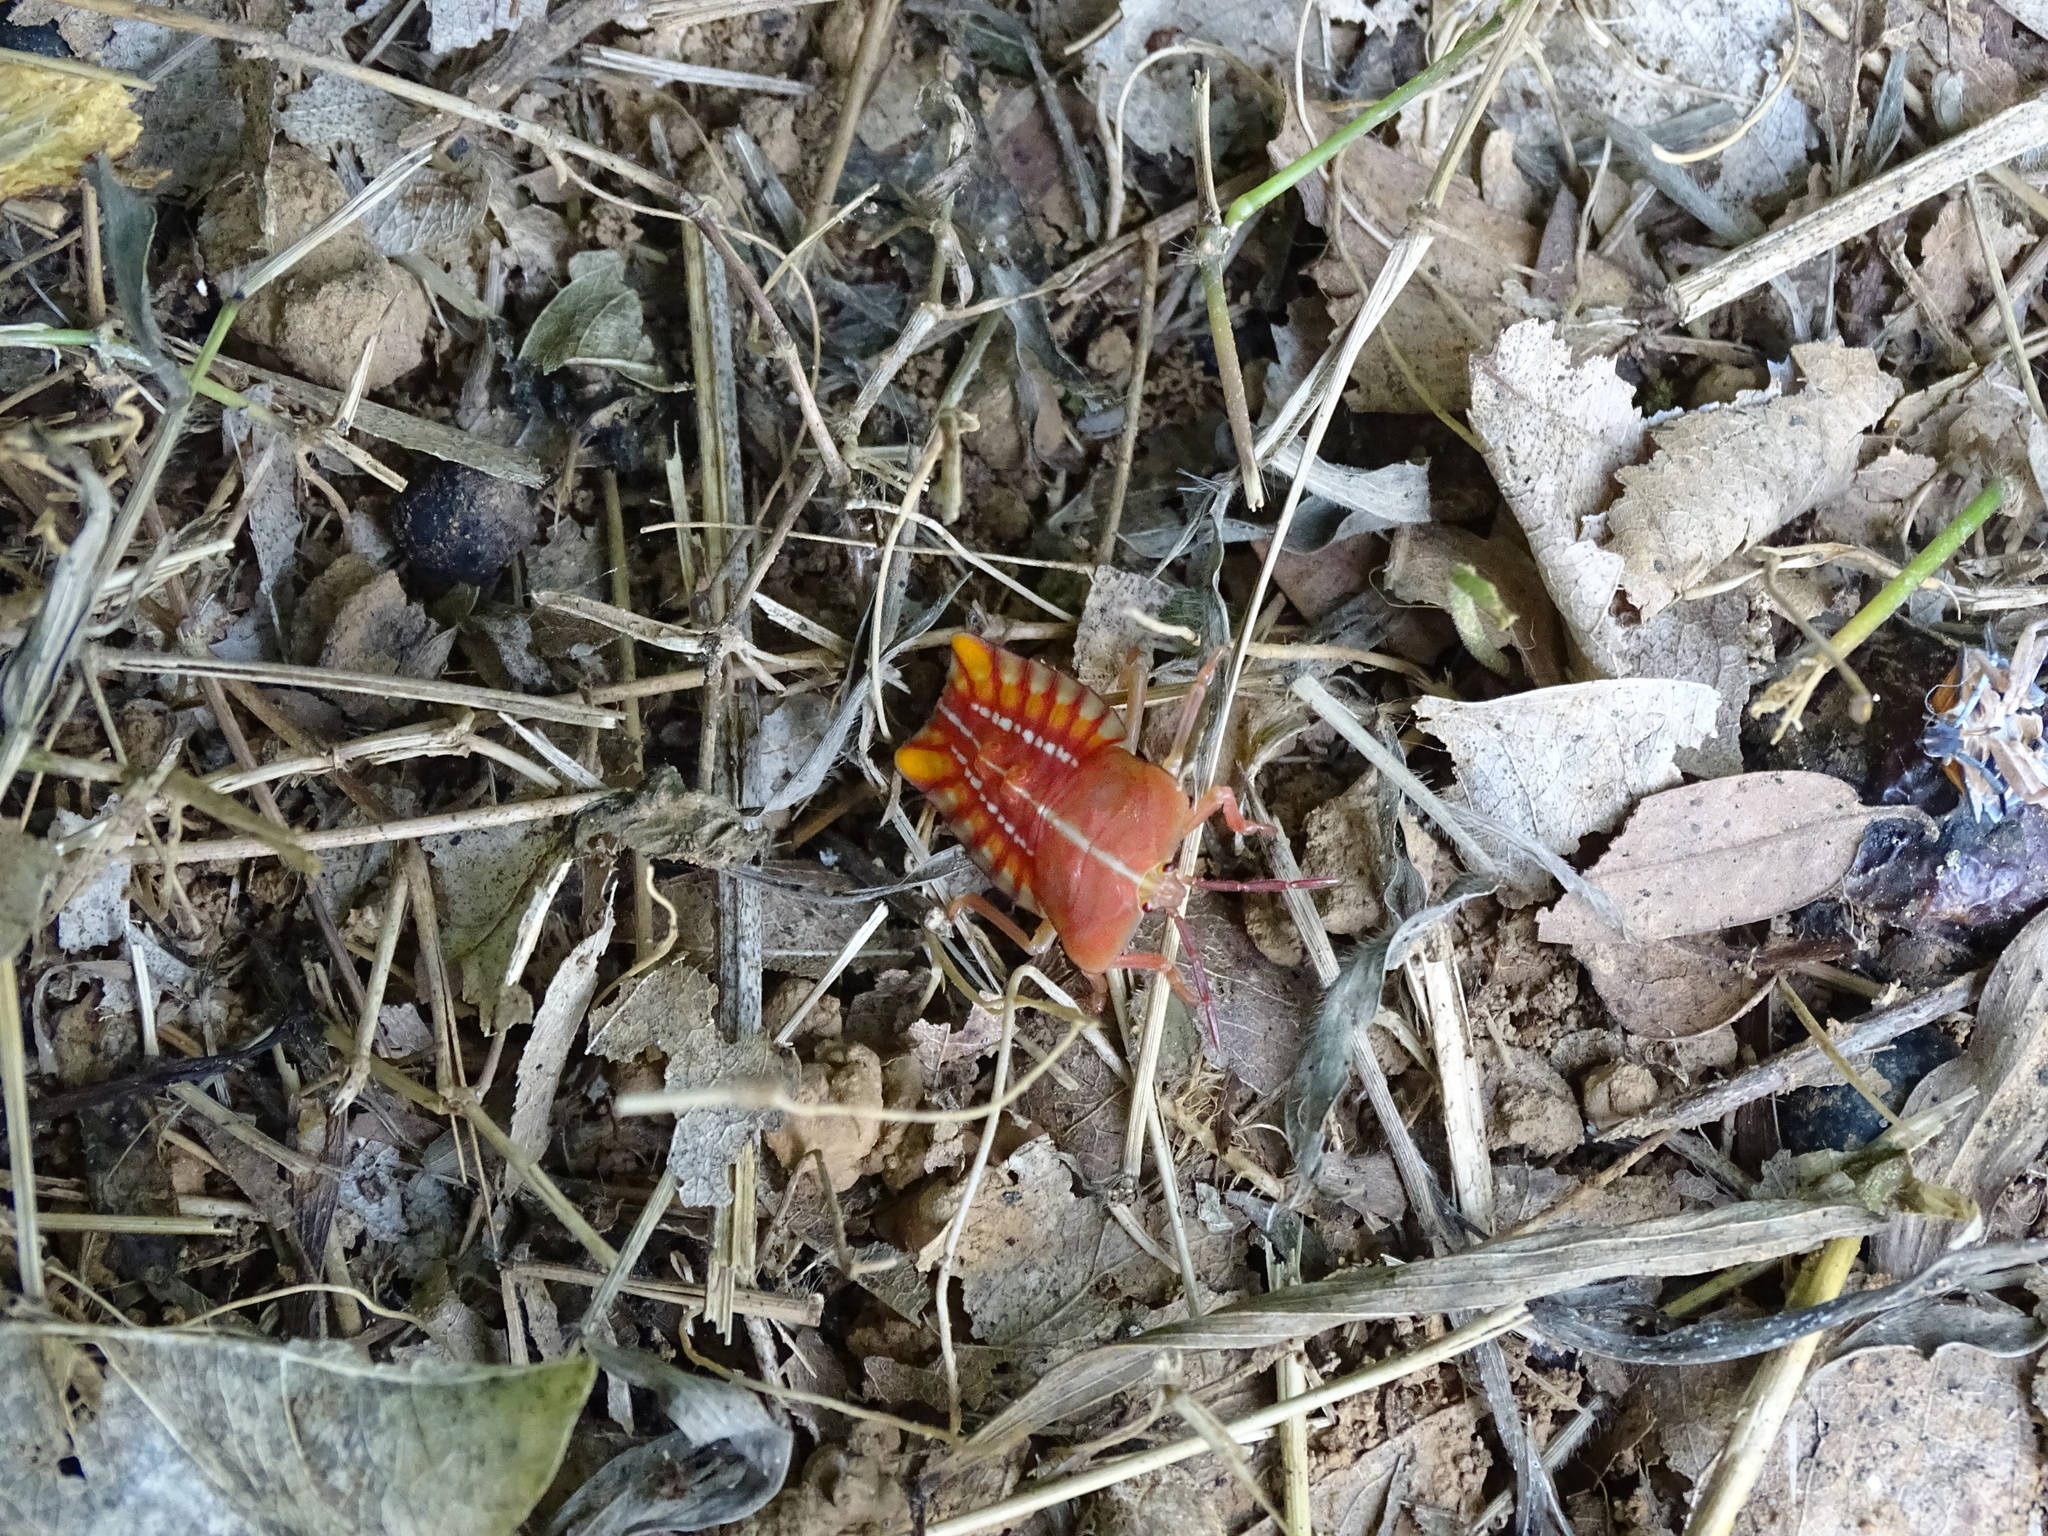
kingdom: Animalia
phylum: Arthropoda
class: Insecta
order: Hemiptera
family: Tessaratomidae
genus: Tessaratoma
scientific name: Tessaratoma papillosa
